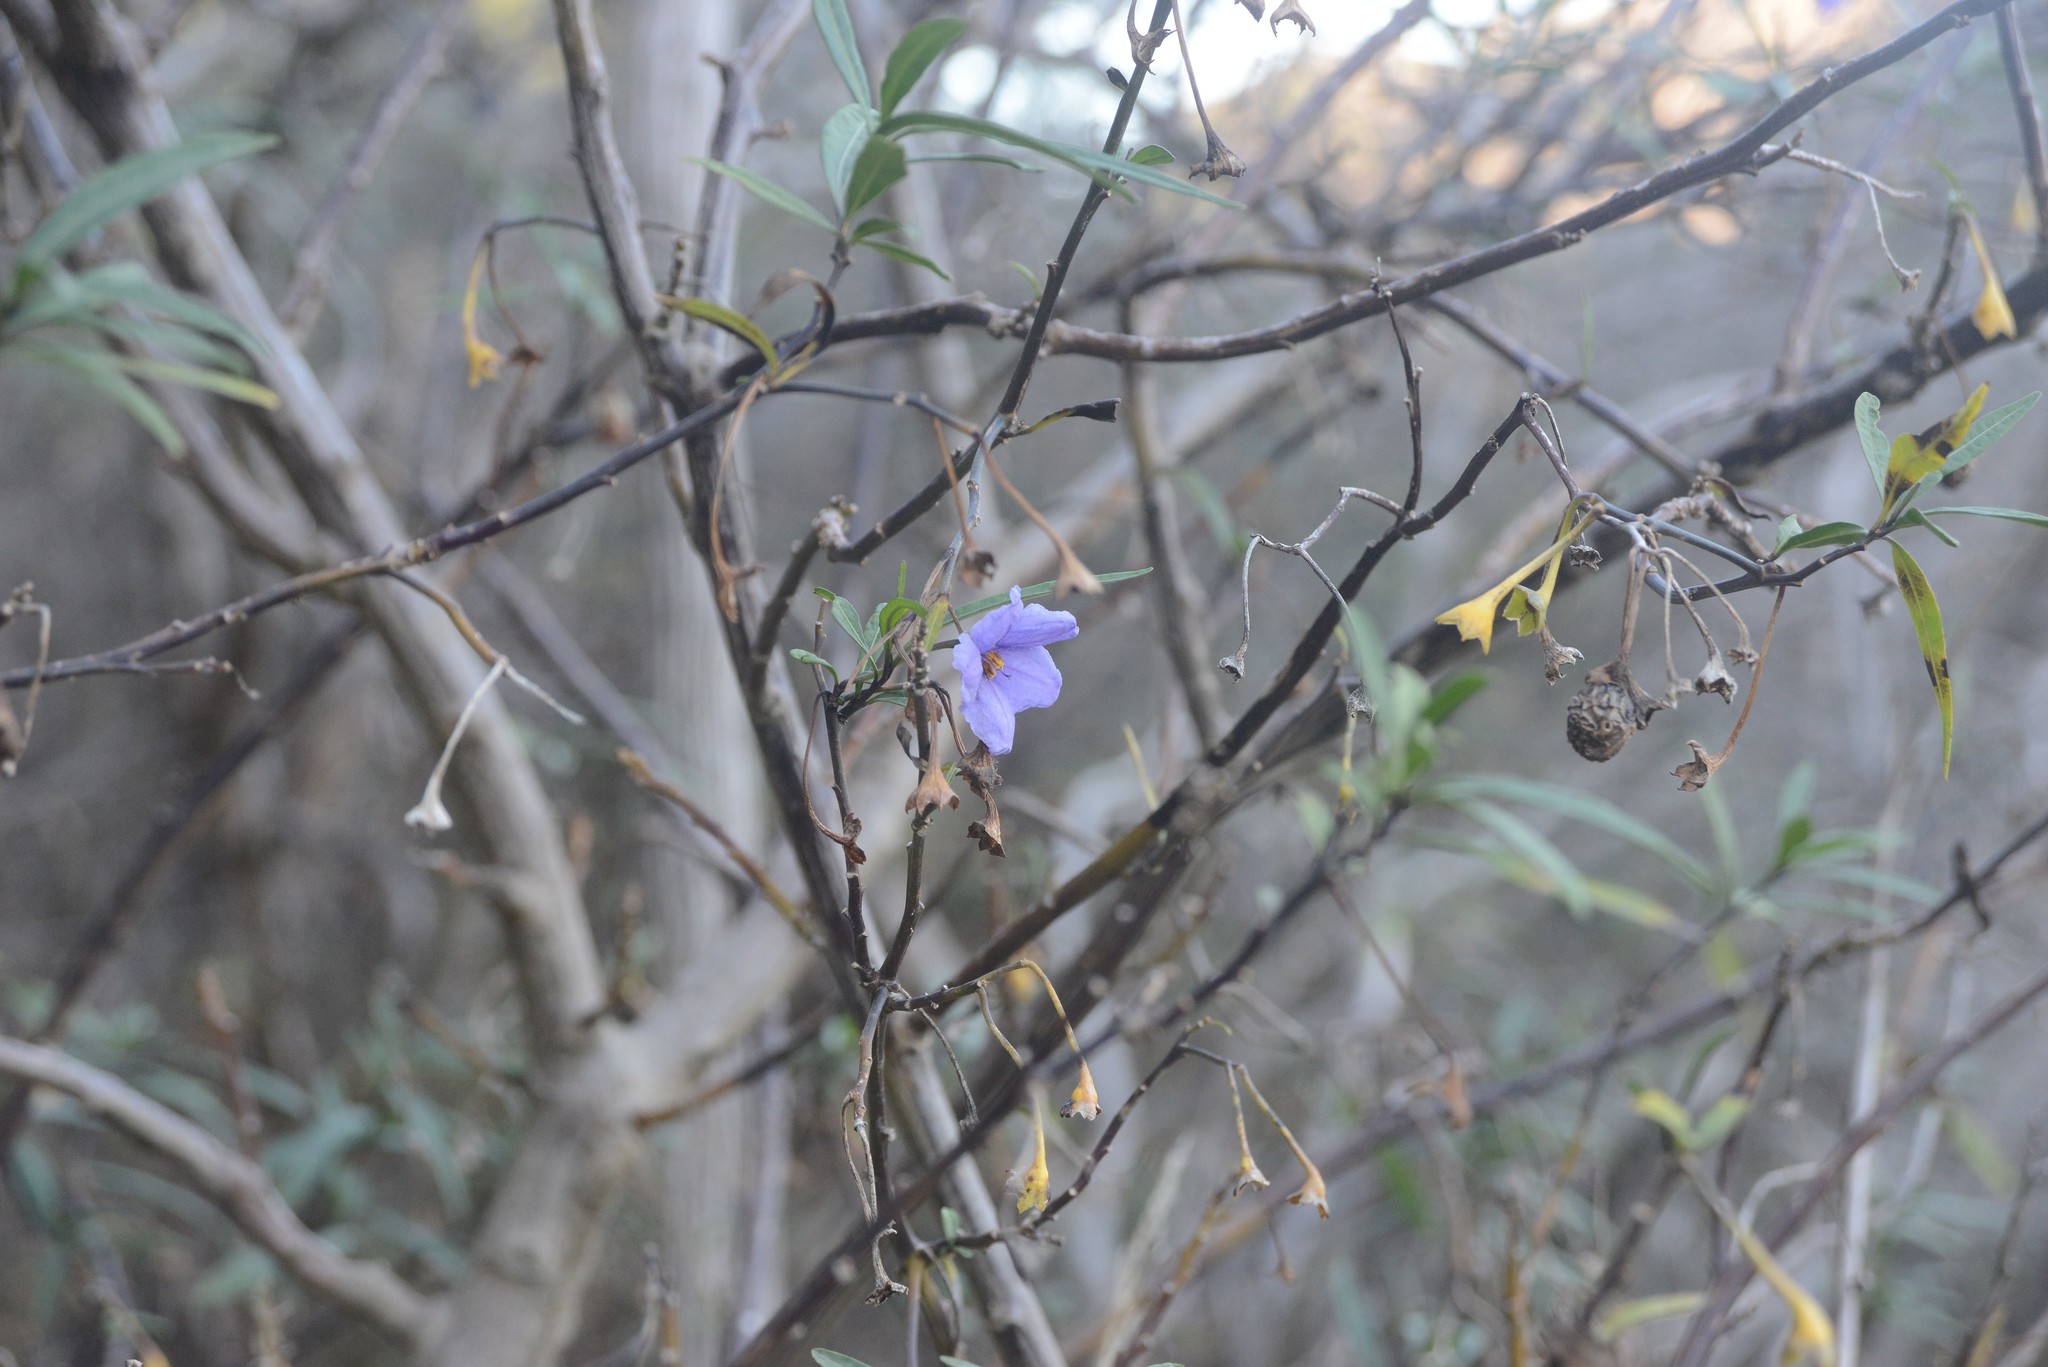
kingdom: Plantae
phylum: Tracheophyta
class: Magnoliopsida
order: Solanales
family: Solanaceae
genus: Solanum
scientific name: Solanum laciniatum
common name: Kangaroo-apple
